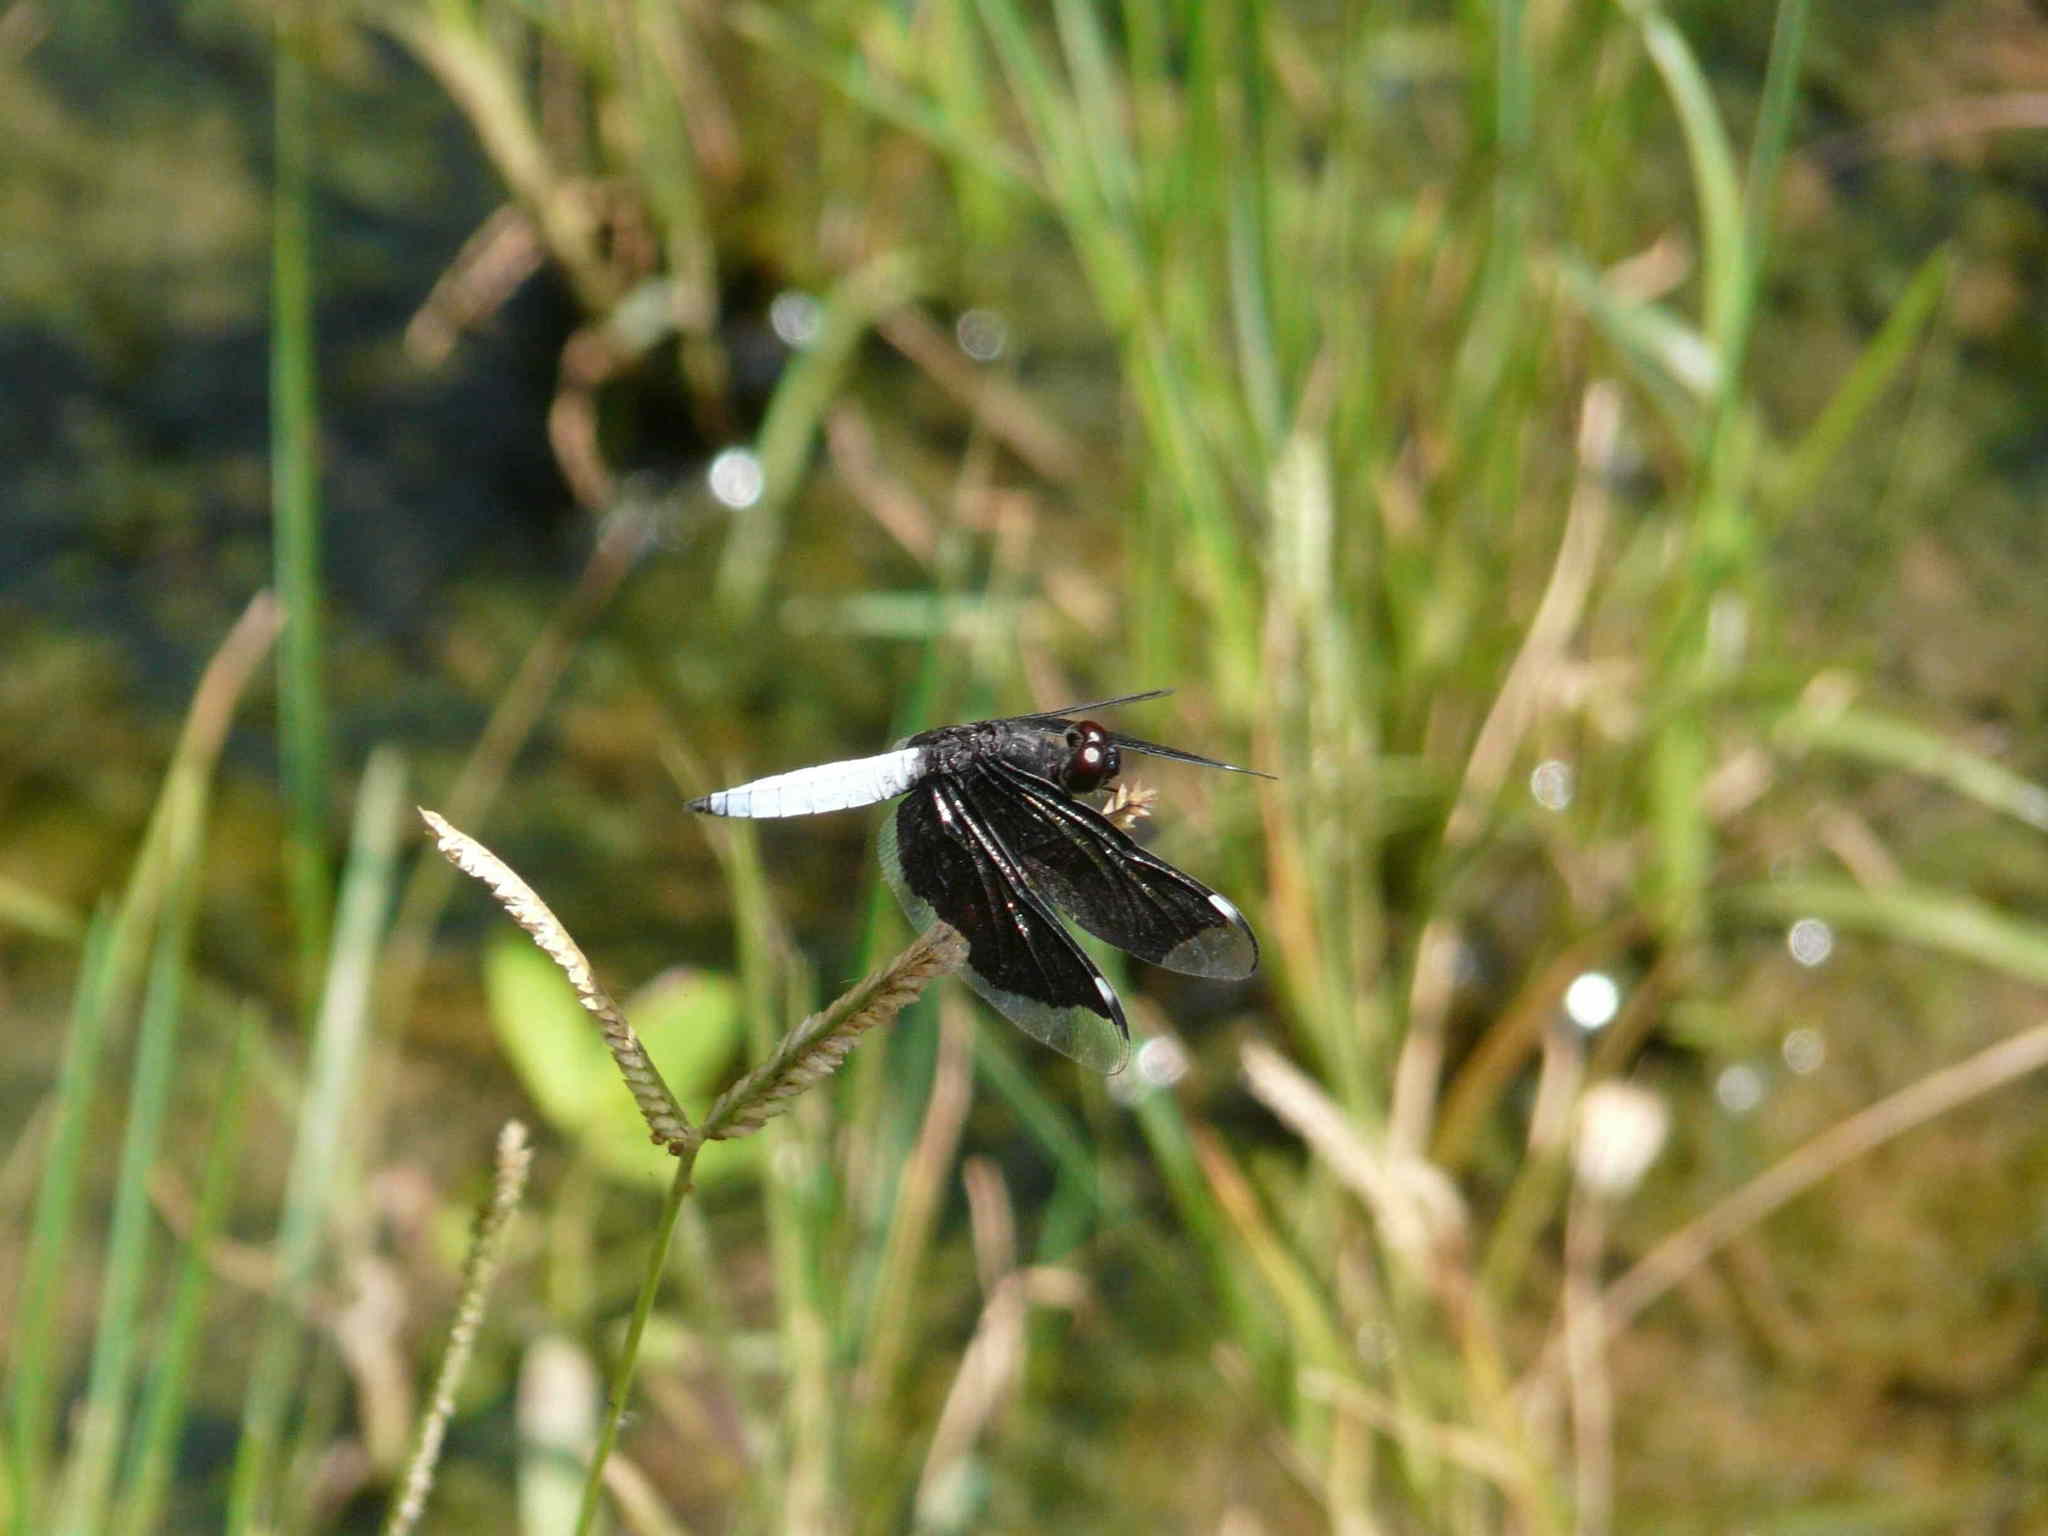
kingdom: Animalia
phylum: Arthropoda
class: Insecta
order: Odonata
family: Libellulidae
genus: Palpopleura
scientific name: Palpopleura lucia
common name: Lucia widow
